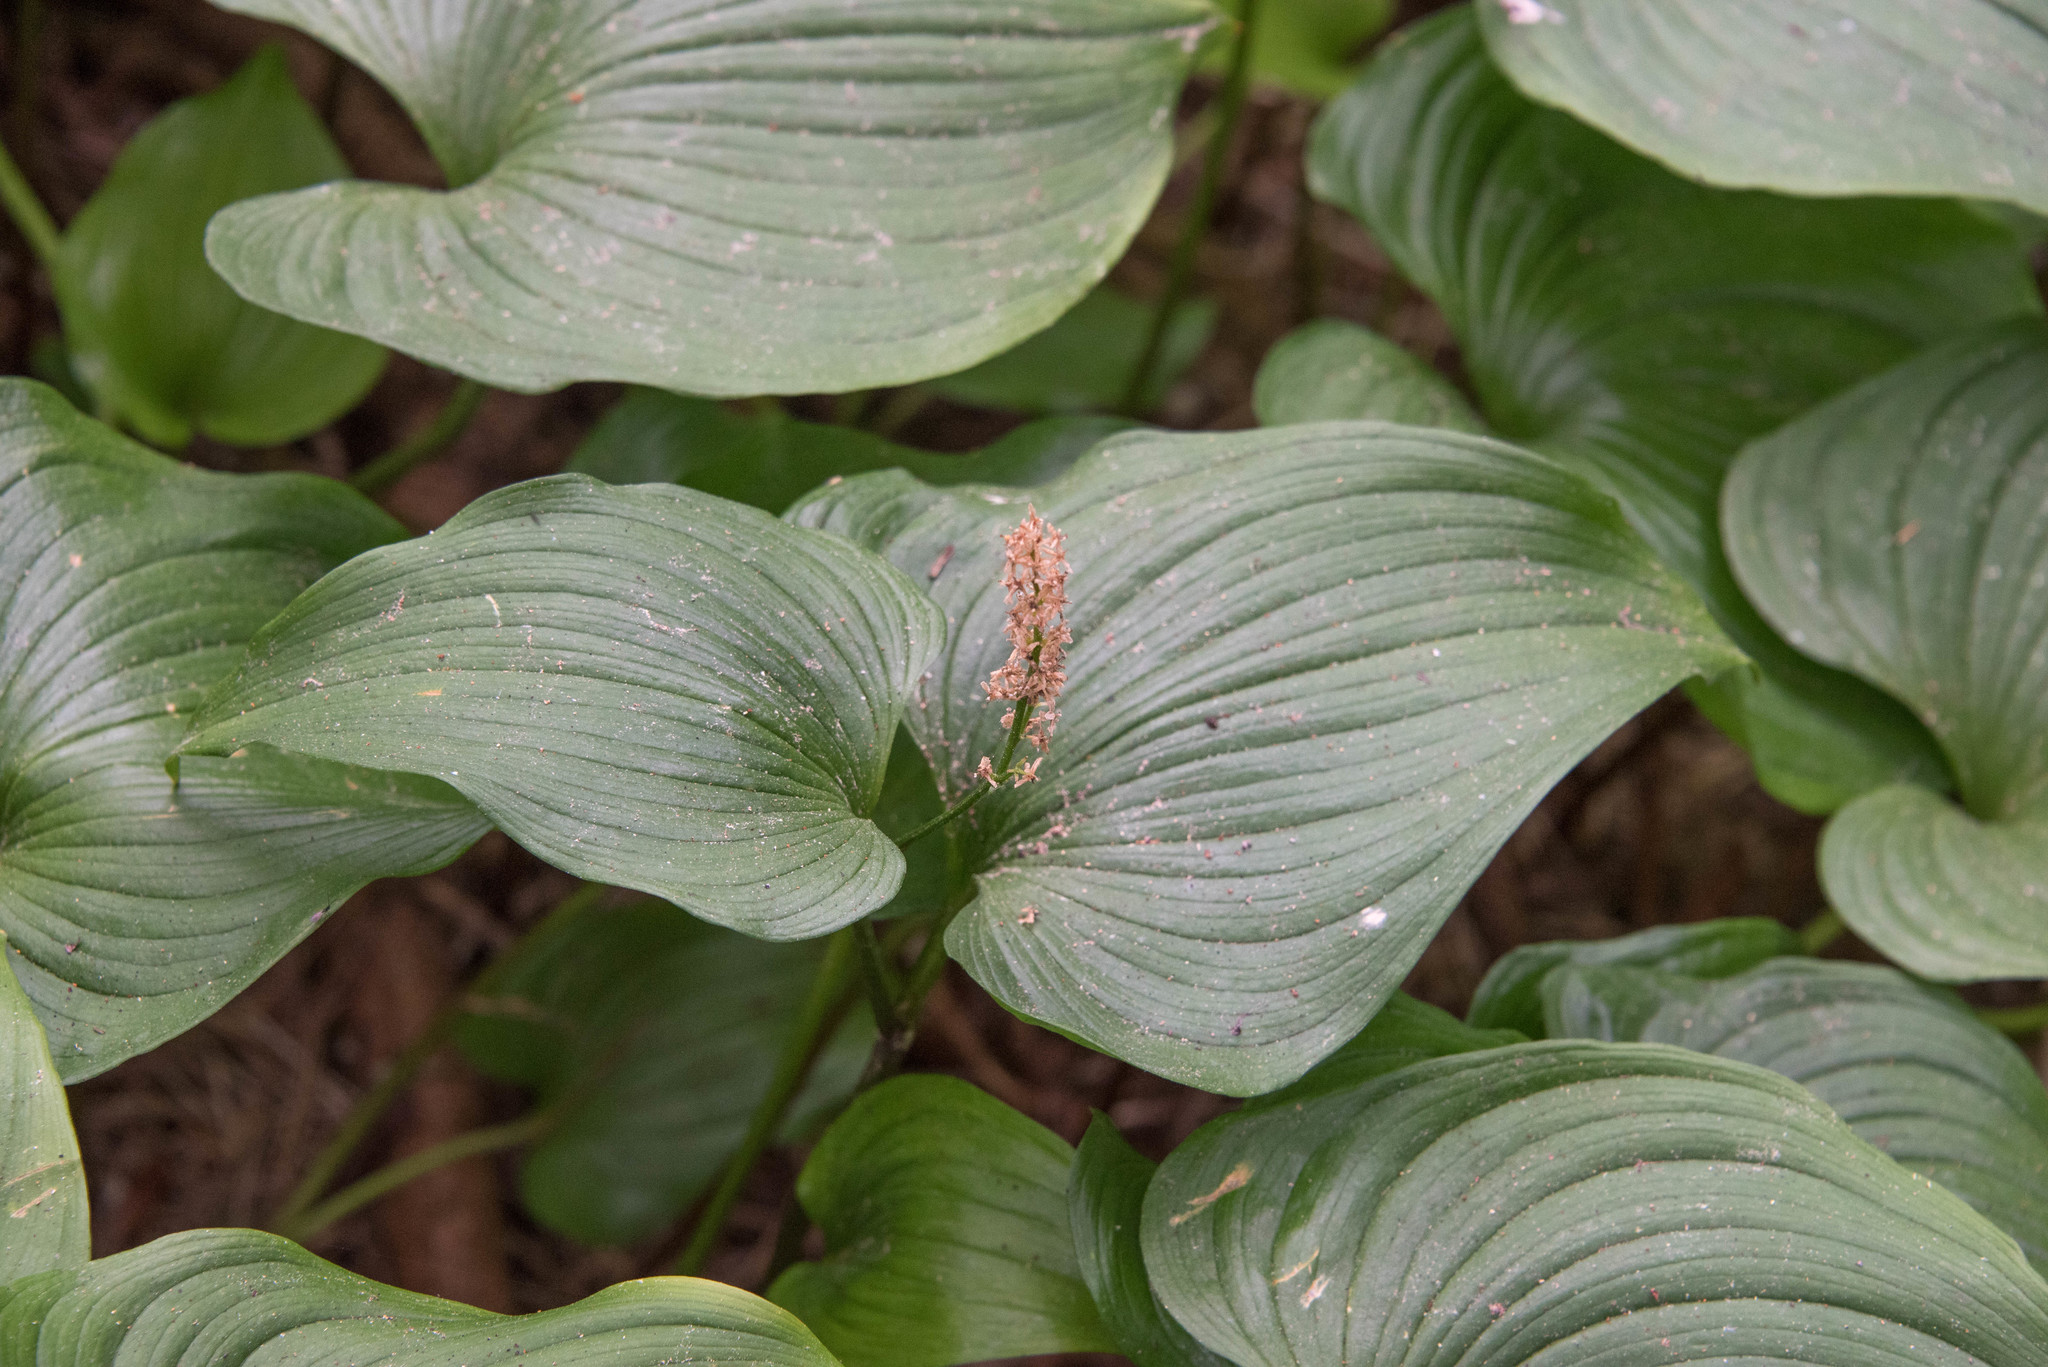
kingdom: Plantae
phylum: Tracheophyta
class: Liliopsida
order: Asparagales
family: Asparagaceae
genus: Maianthemum
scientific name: Maianthemum dilatatum
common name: False lily-of-the-valley
